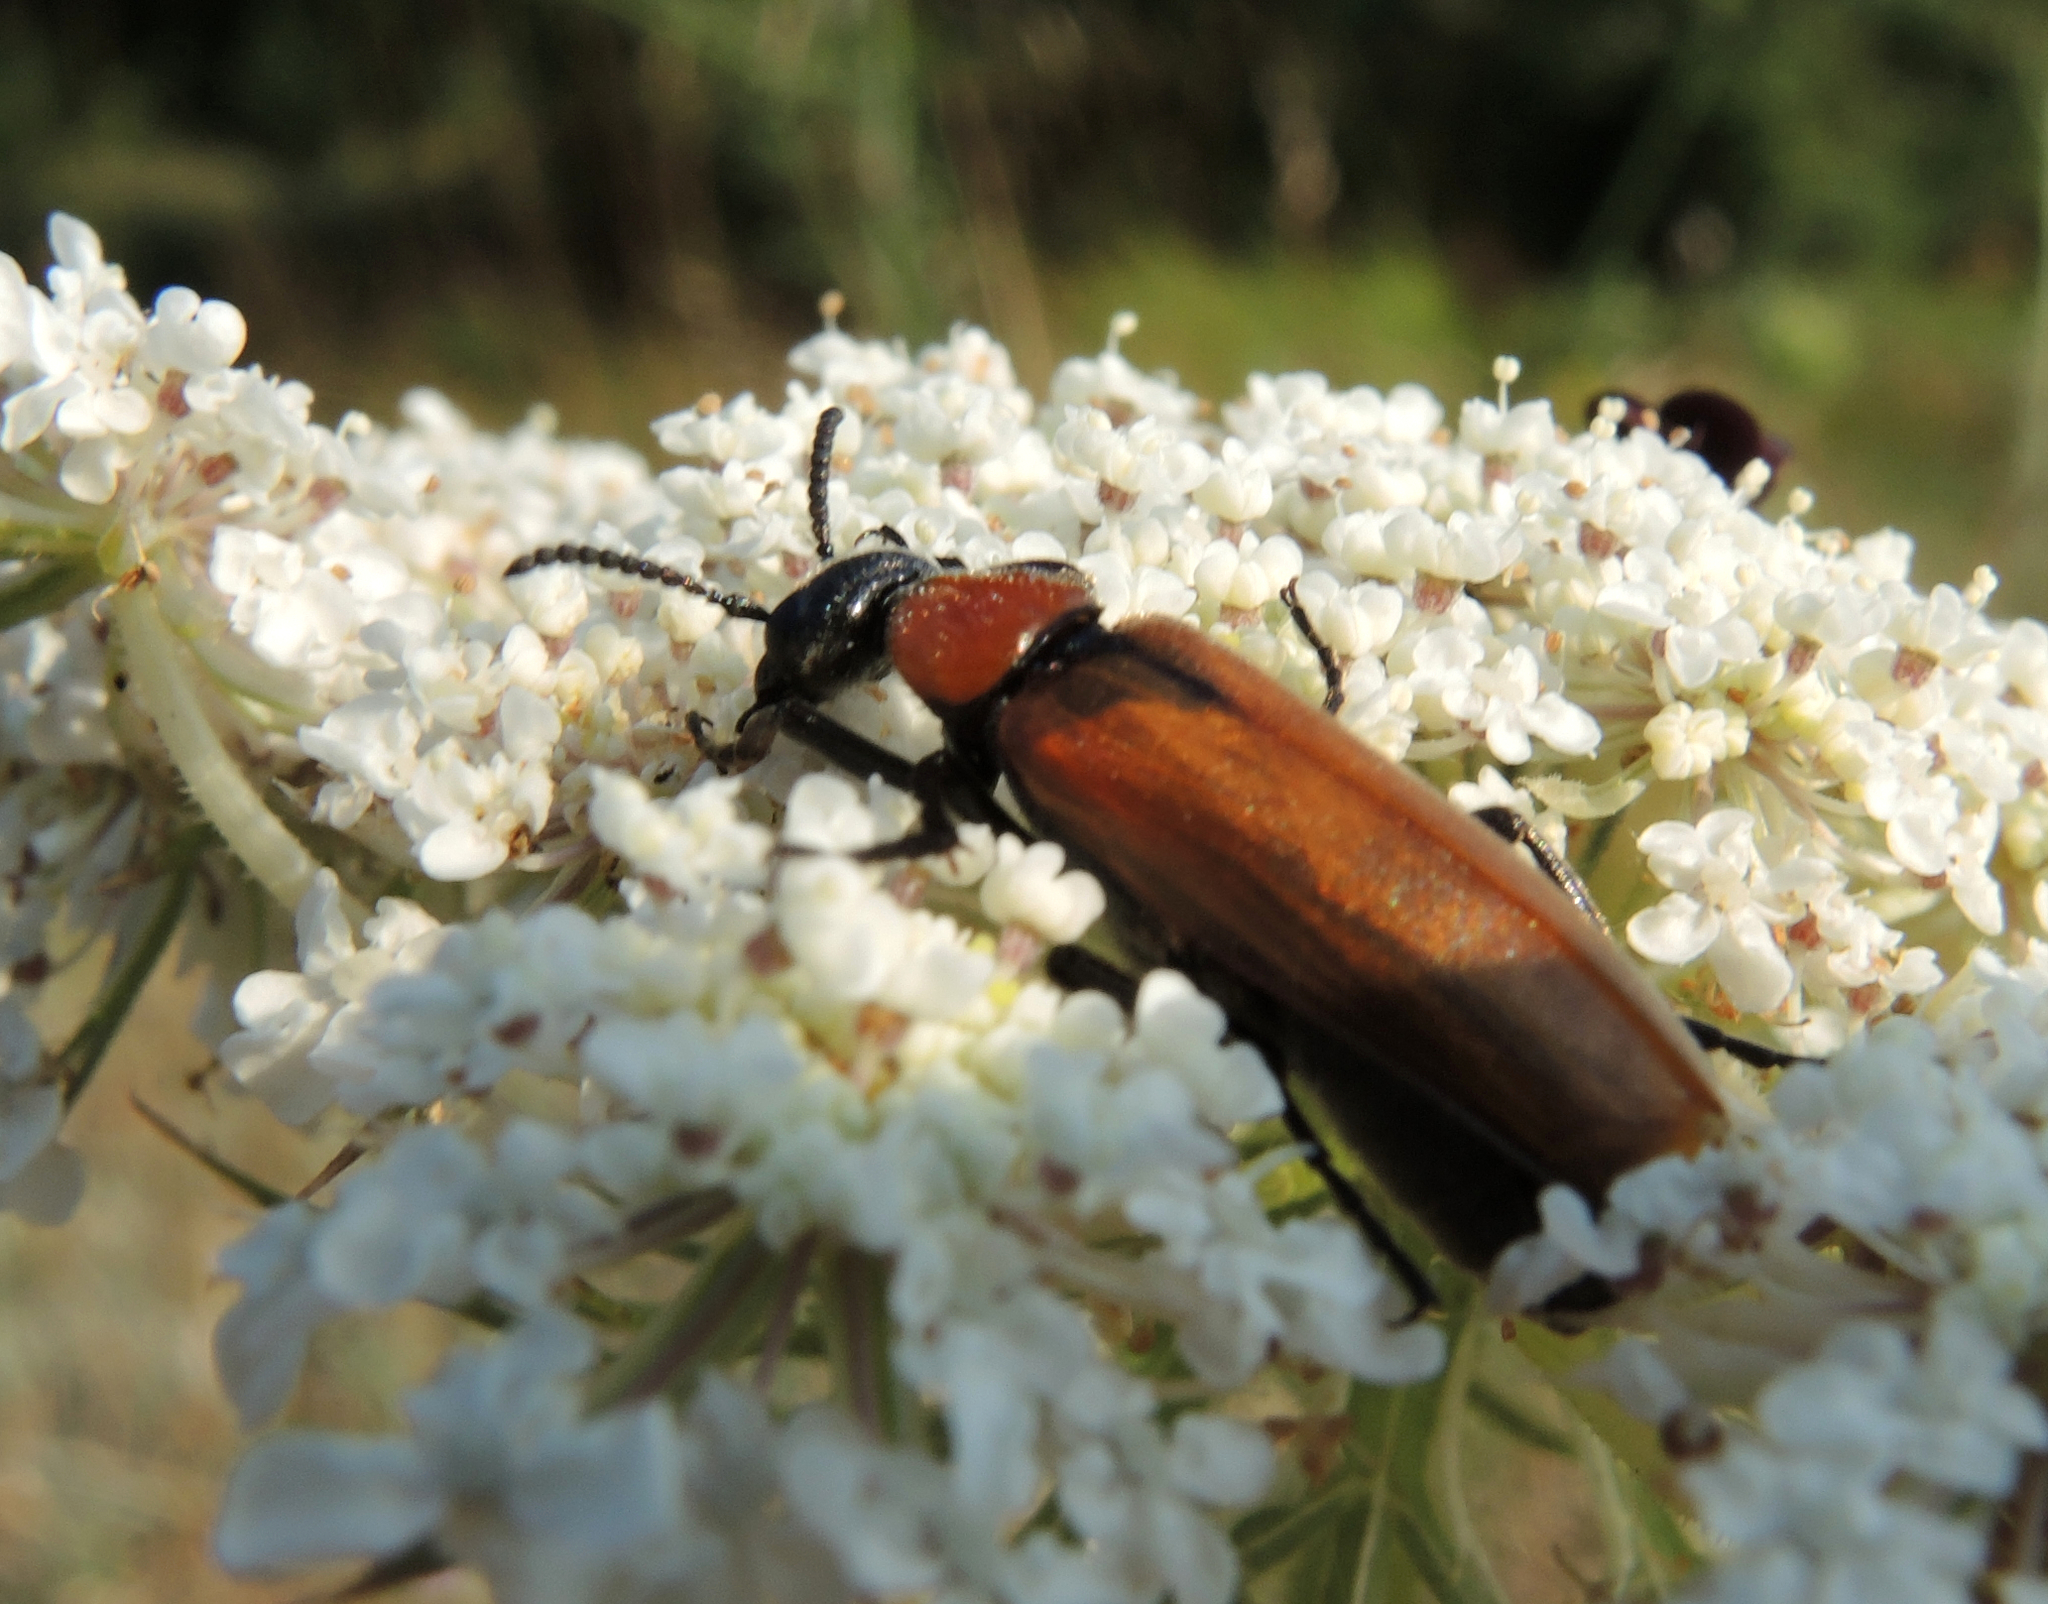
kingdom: Animalia
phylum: Arthropoda
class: Insecta
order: Coleoptera
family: Meloidae
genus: Oenas
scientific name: Oenas crassicornis
